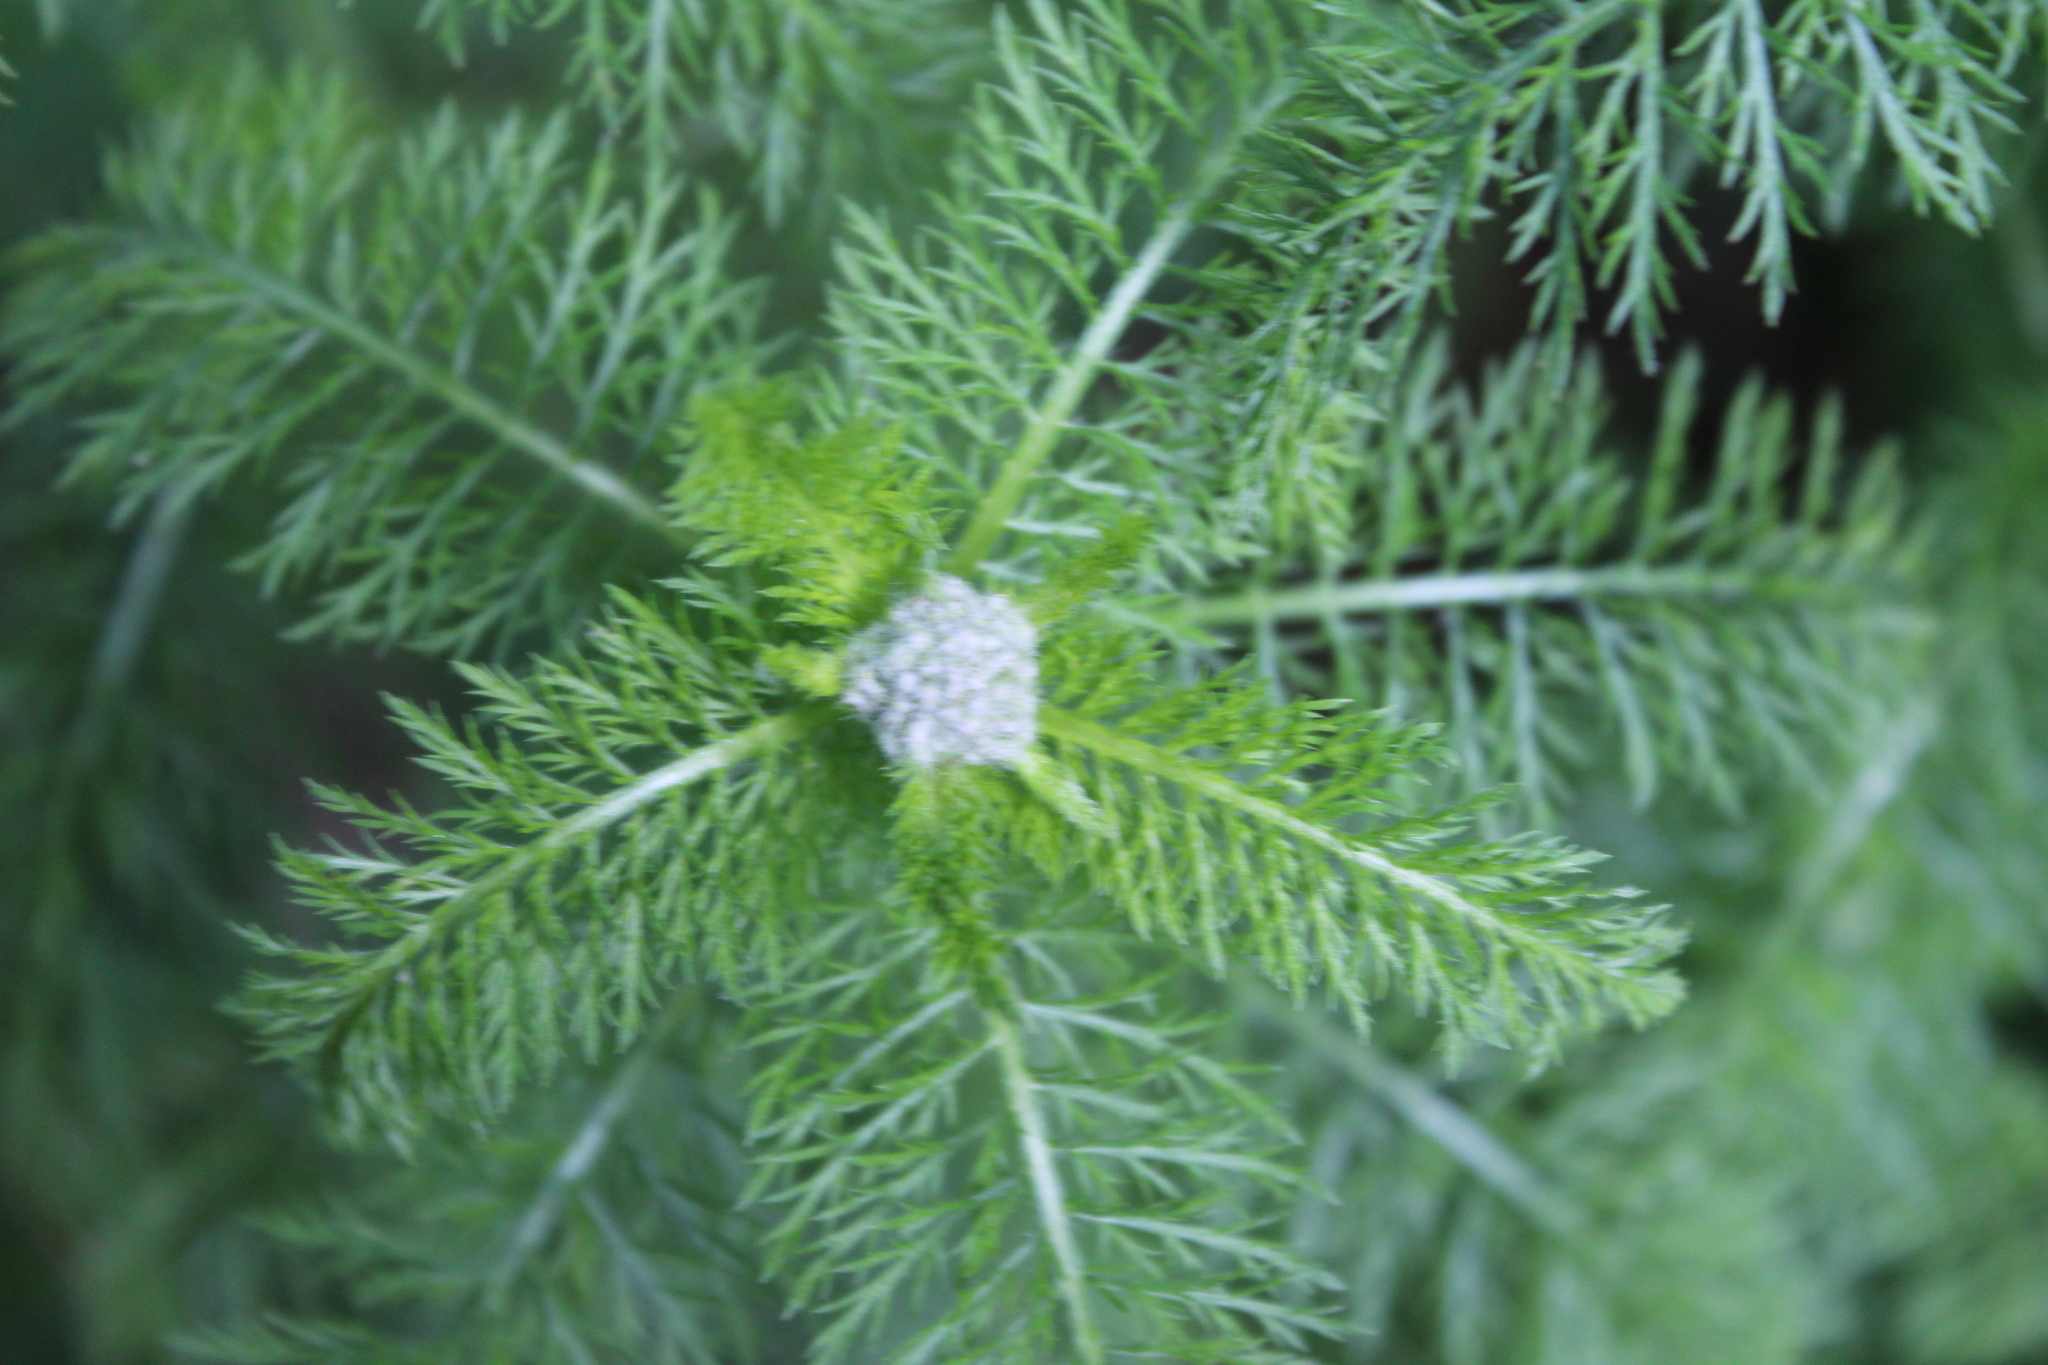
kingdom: Plantae
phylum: Tracheophyta
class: Magnoliopsida
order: Asterales
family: Asteraceae
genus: Achillea
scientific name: Achillea millefolium
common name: Yarrow
